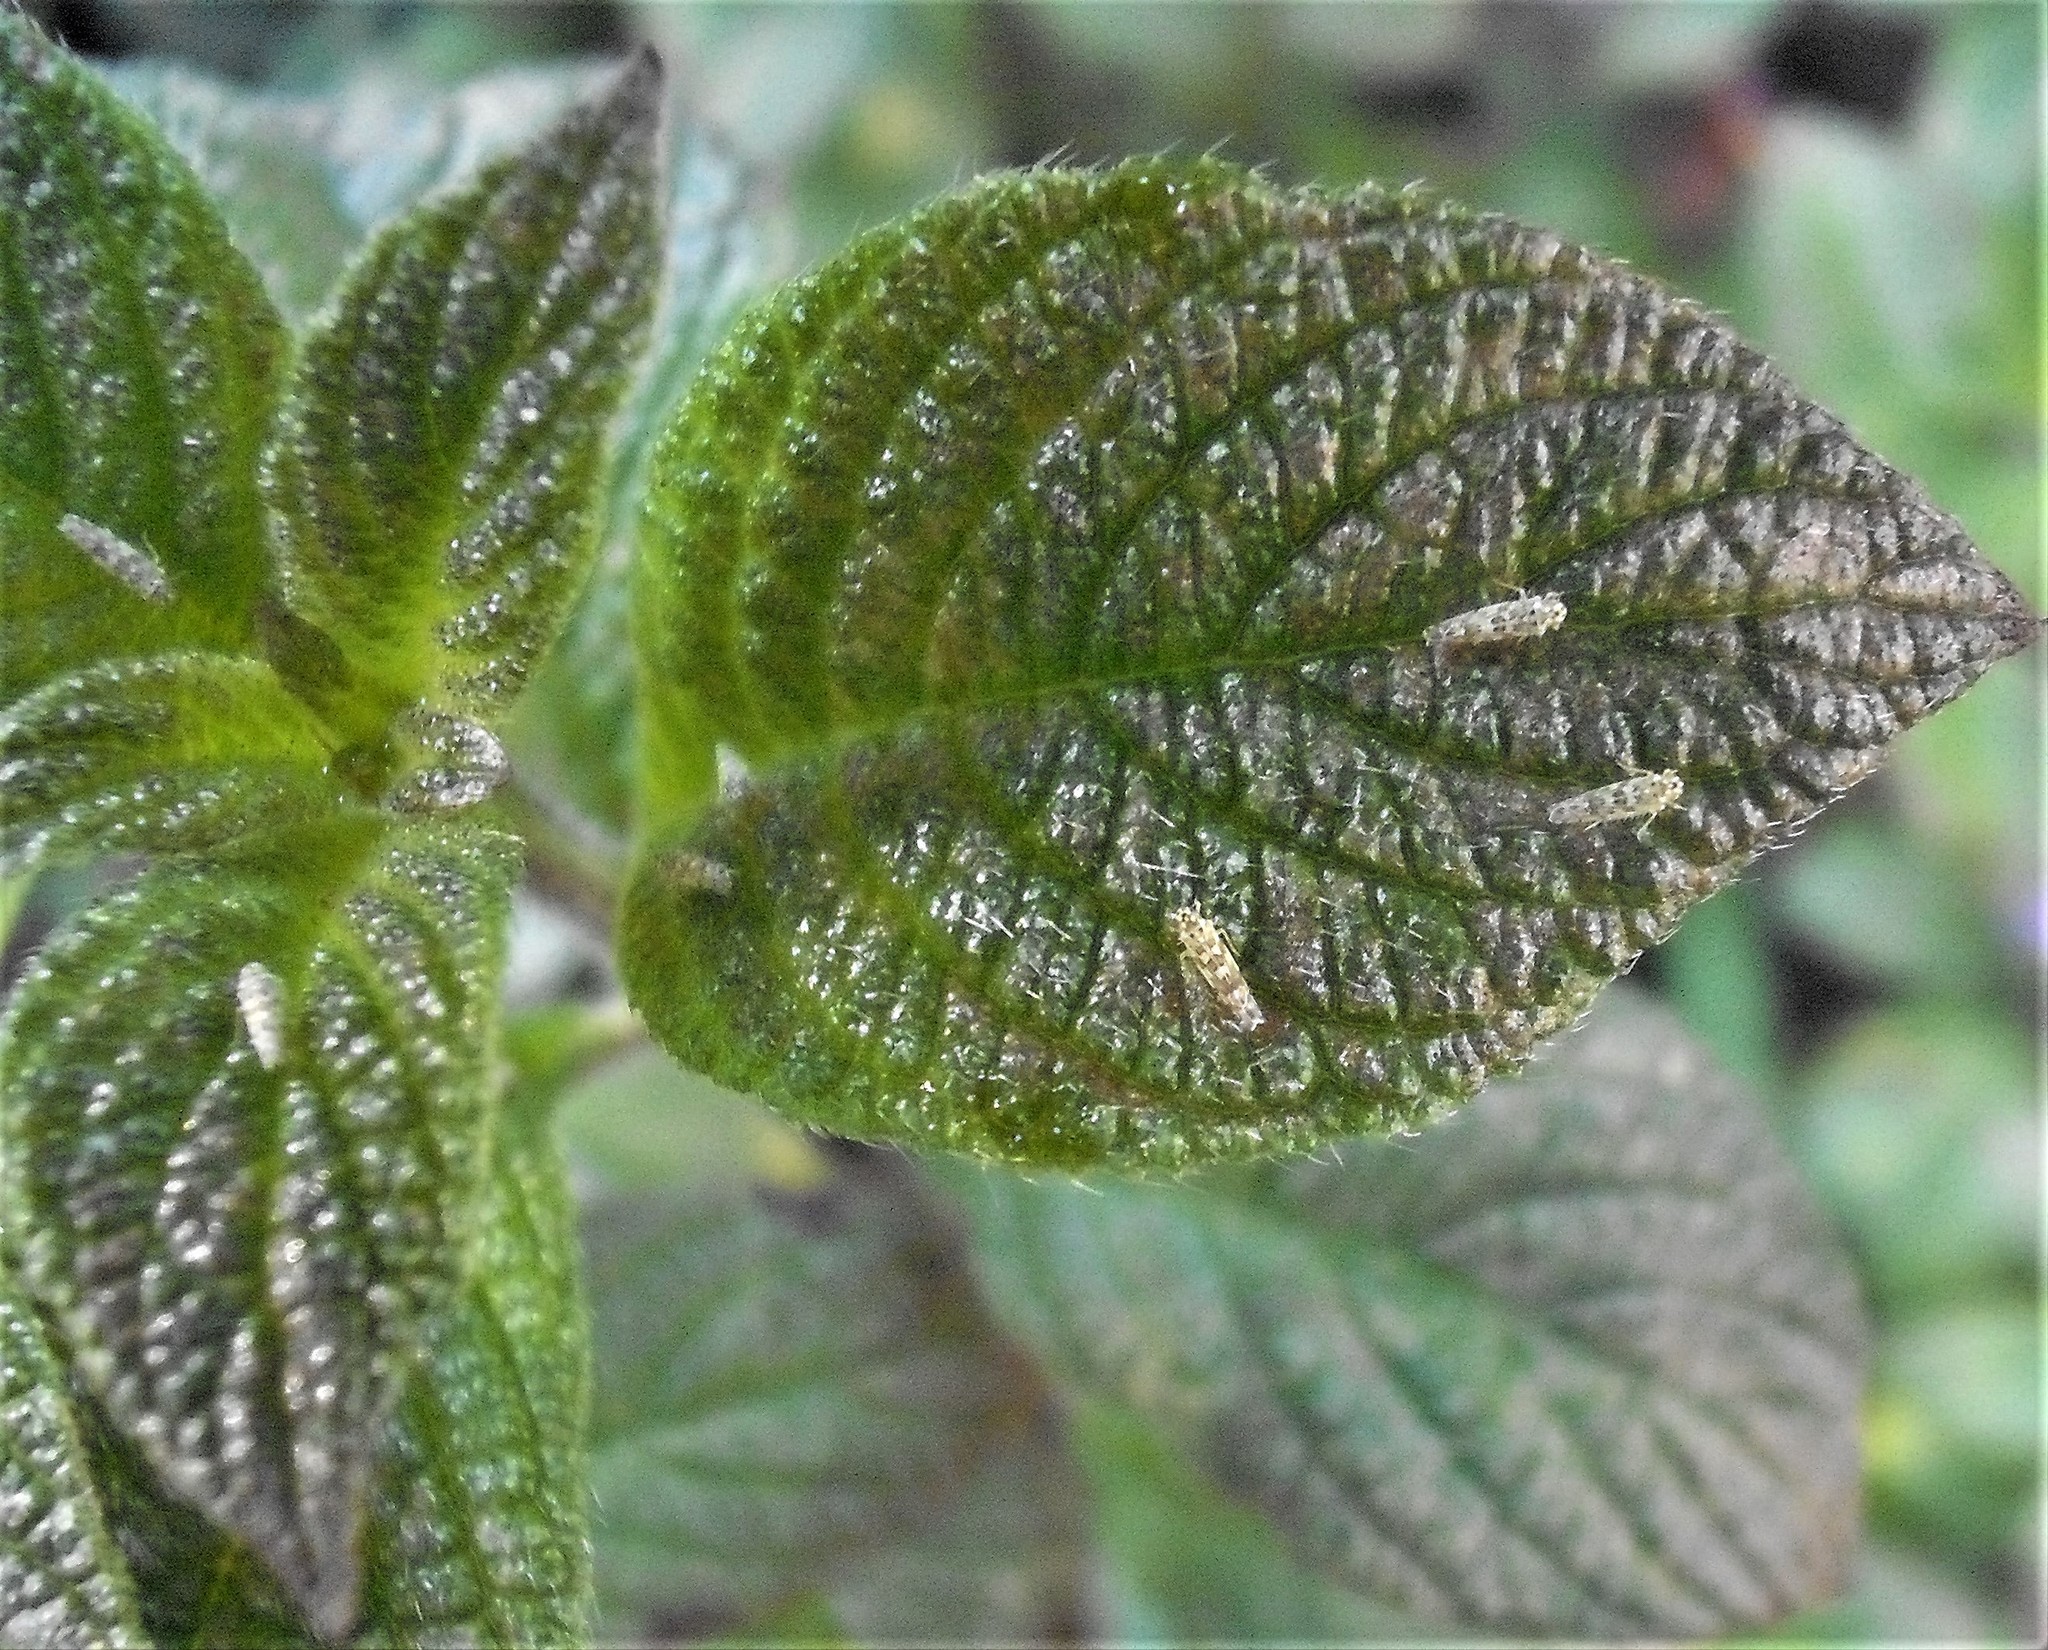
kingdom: Animalia
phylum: Arthropoda
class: Insecta
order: Hemiptera
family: Cicadellidae
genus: Eupteryx
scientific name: Eupteryx melissae
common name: Herb leafhopper
